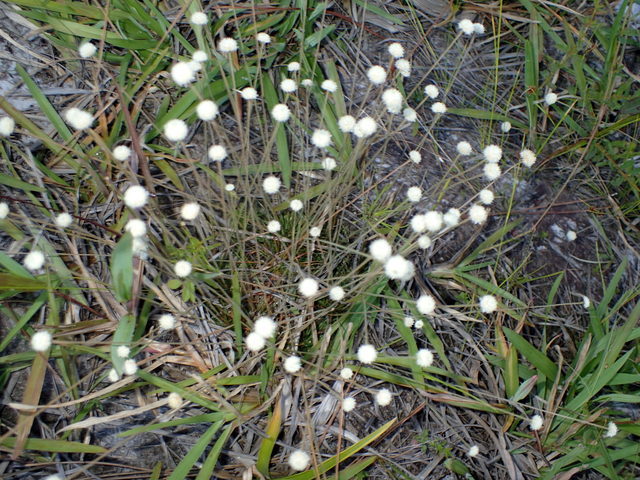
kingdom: Plantae
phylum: Tracheophyta
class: Liliopsida
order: Poales
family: Eriocaulaceae
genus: Syngonanthus
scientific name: Syngonanthus flavidulus
